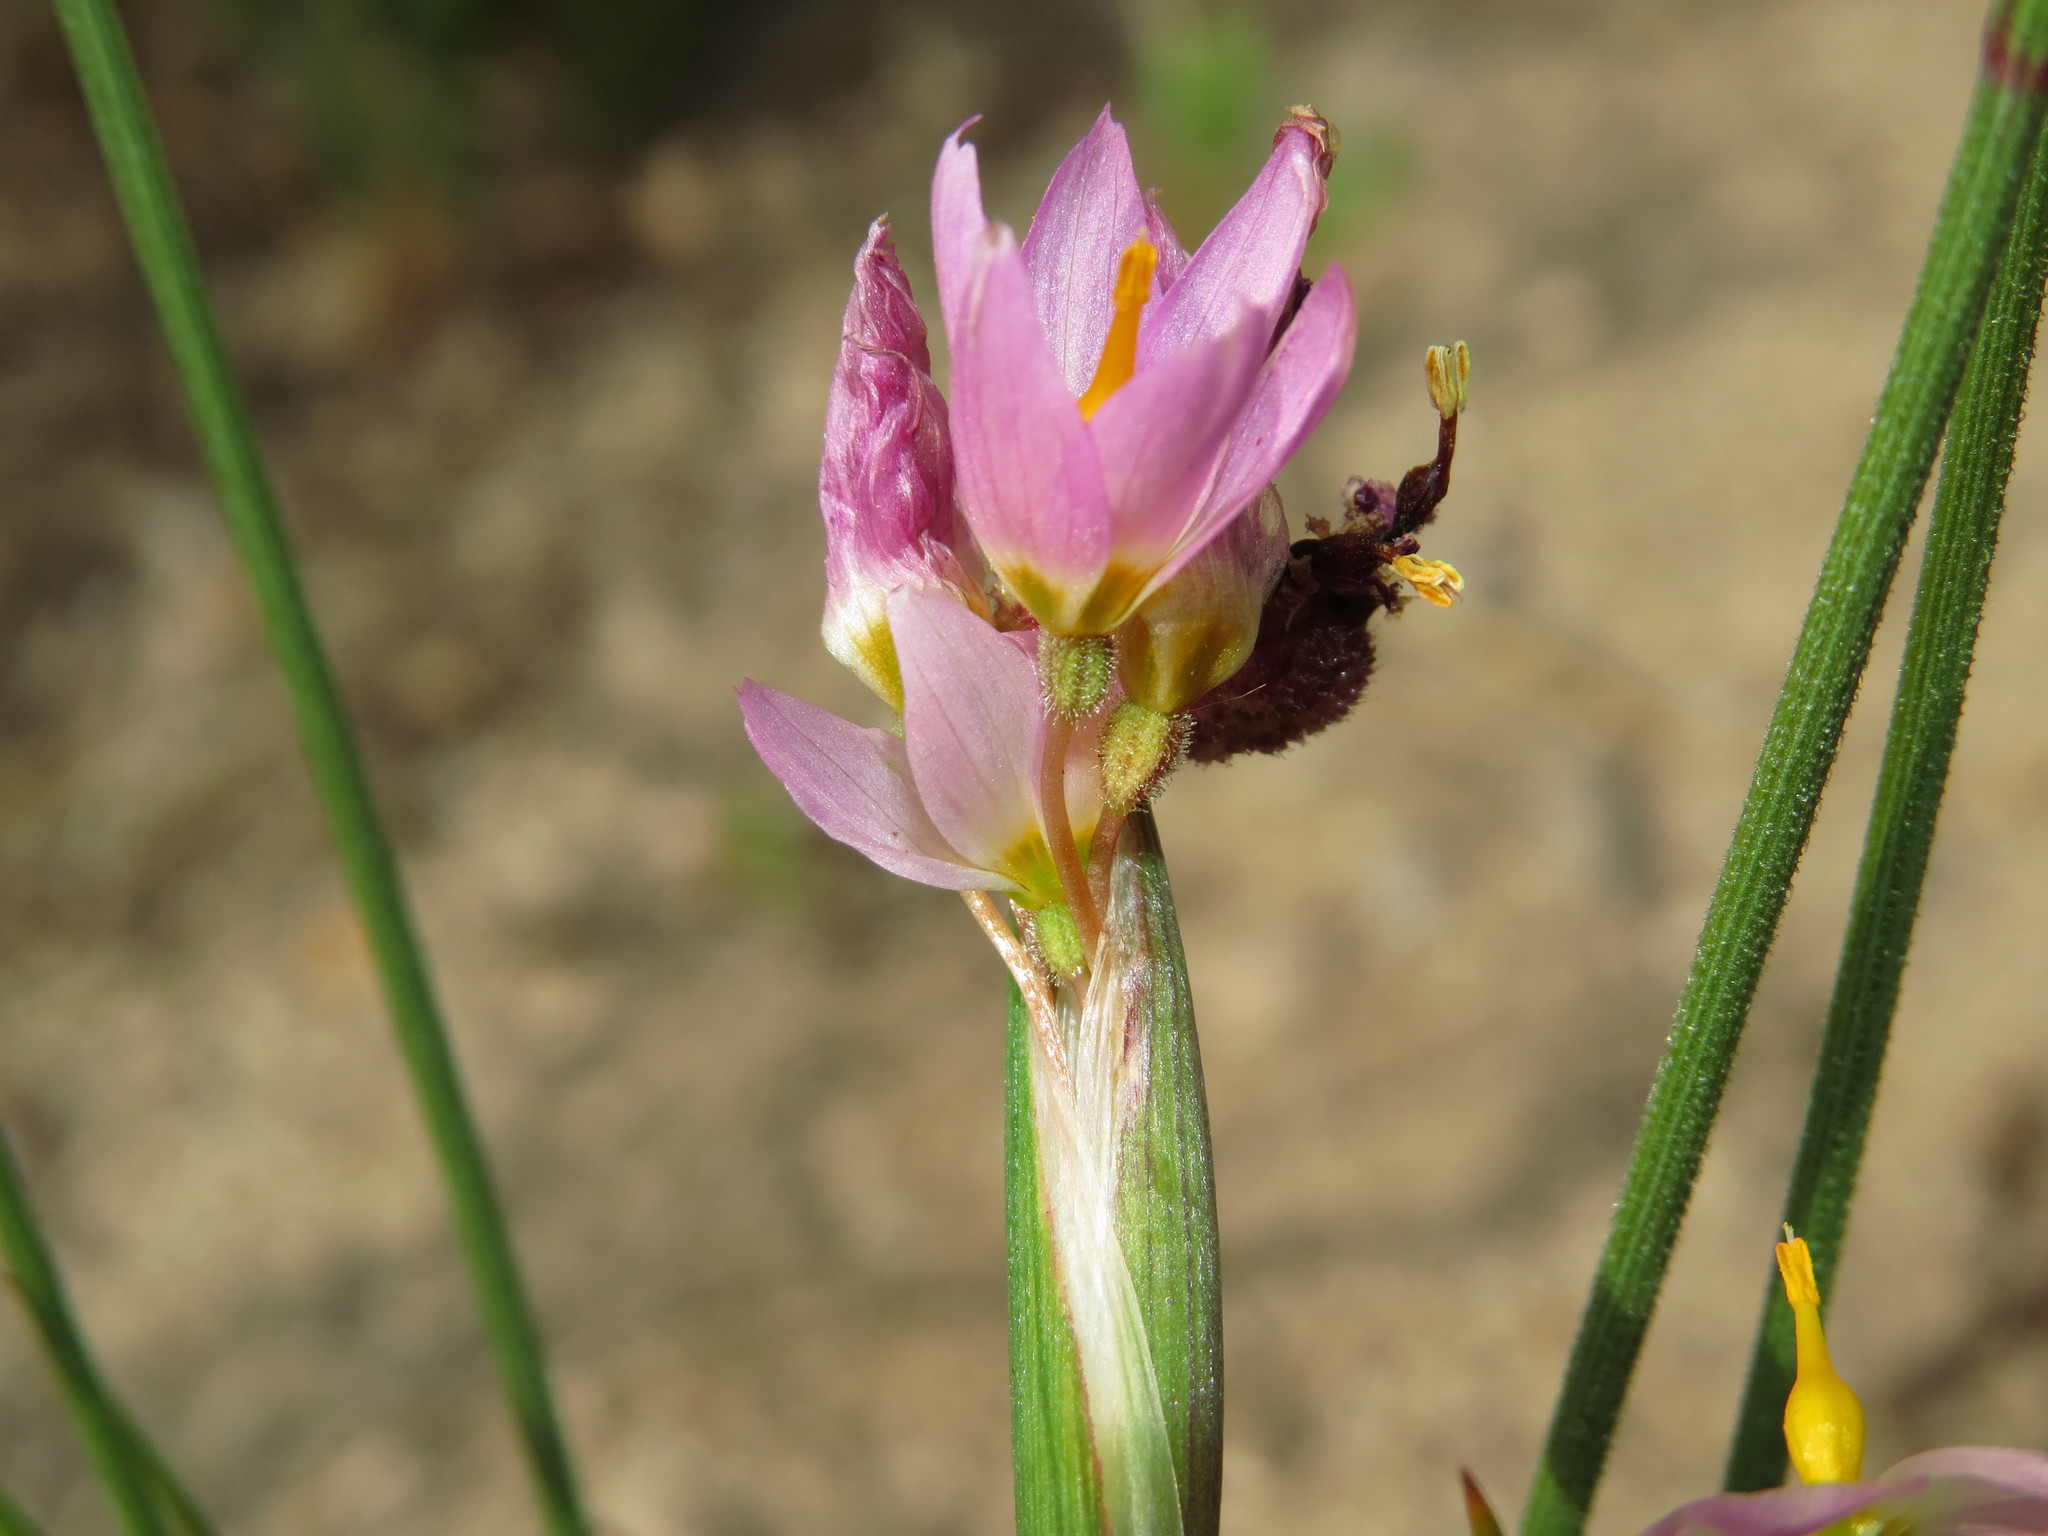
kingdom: Plantae
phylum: Tracheophyta
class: Liliopsida
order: Asparagales
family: Iridaceae
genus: Olsynium
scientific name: Olsynium scirpoideum
